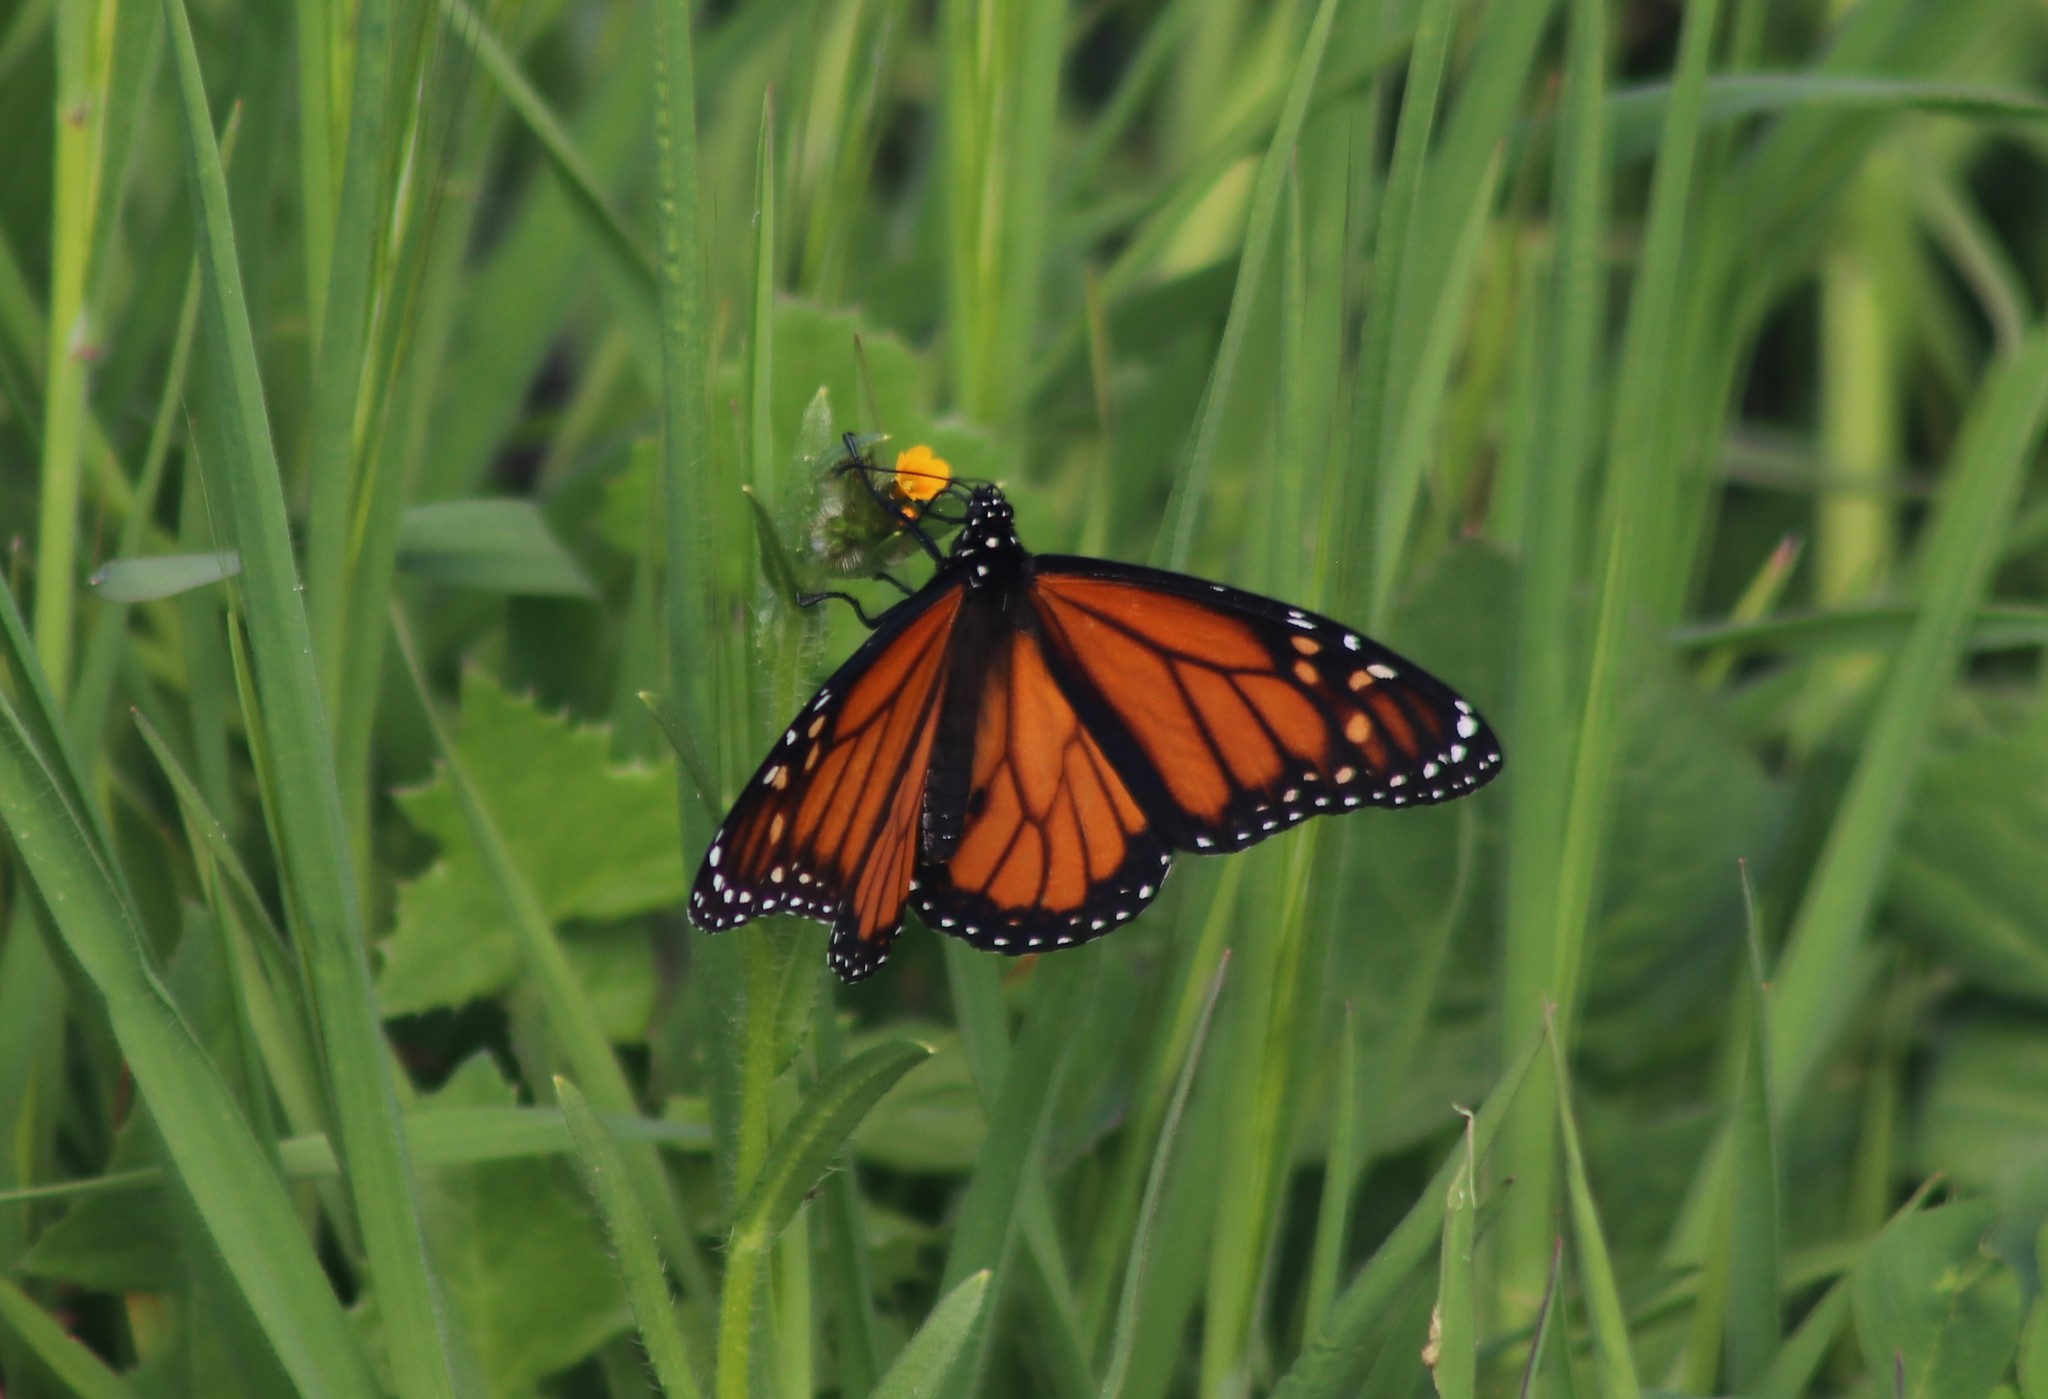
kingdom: Animalia
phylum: Arthropoda
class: Insecta
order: Lepidoptera
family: Nymphalidae
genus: Danaus
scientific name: Danaus plexippus
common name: Monarch
